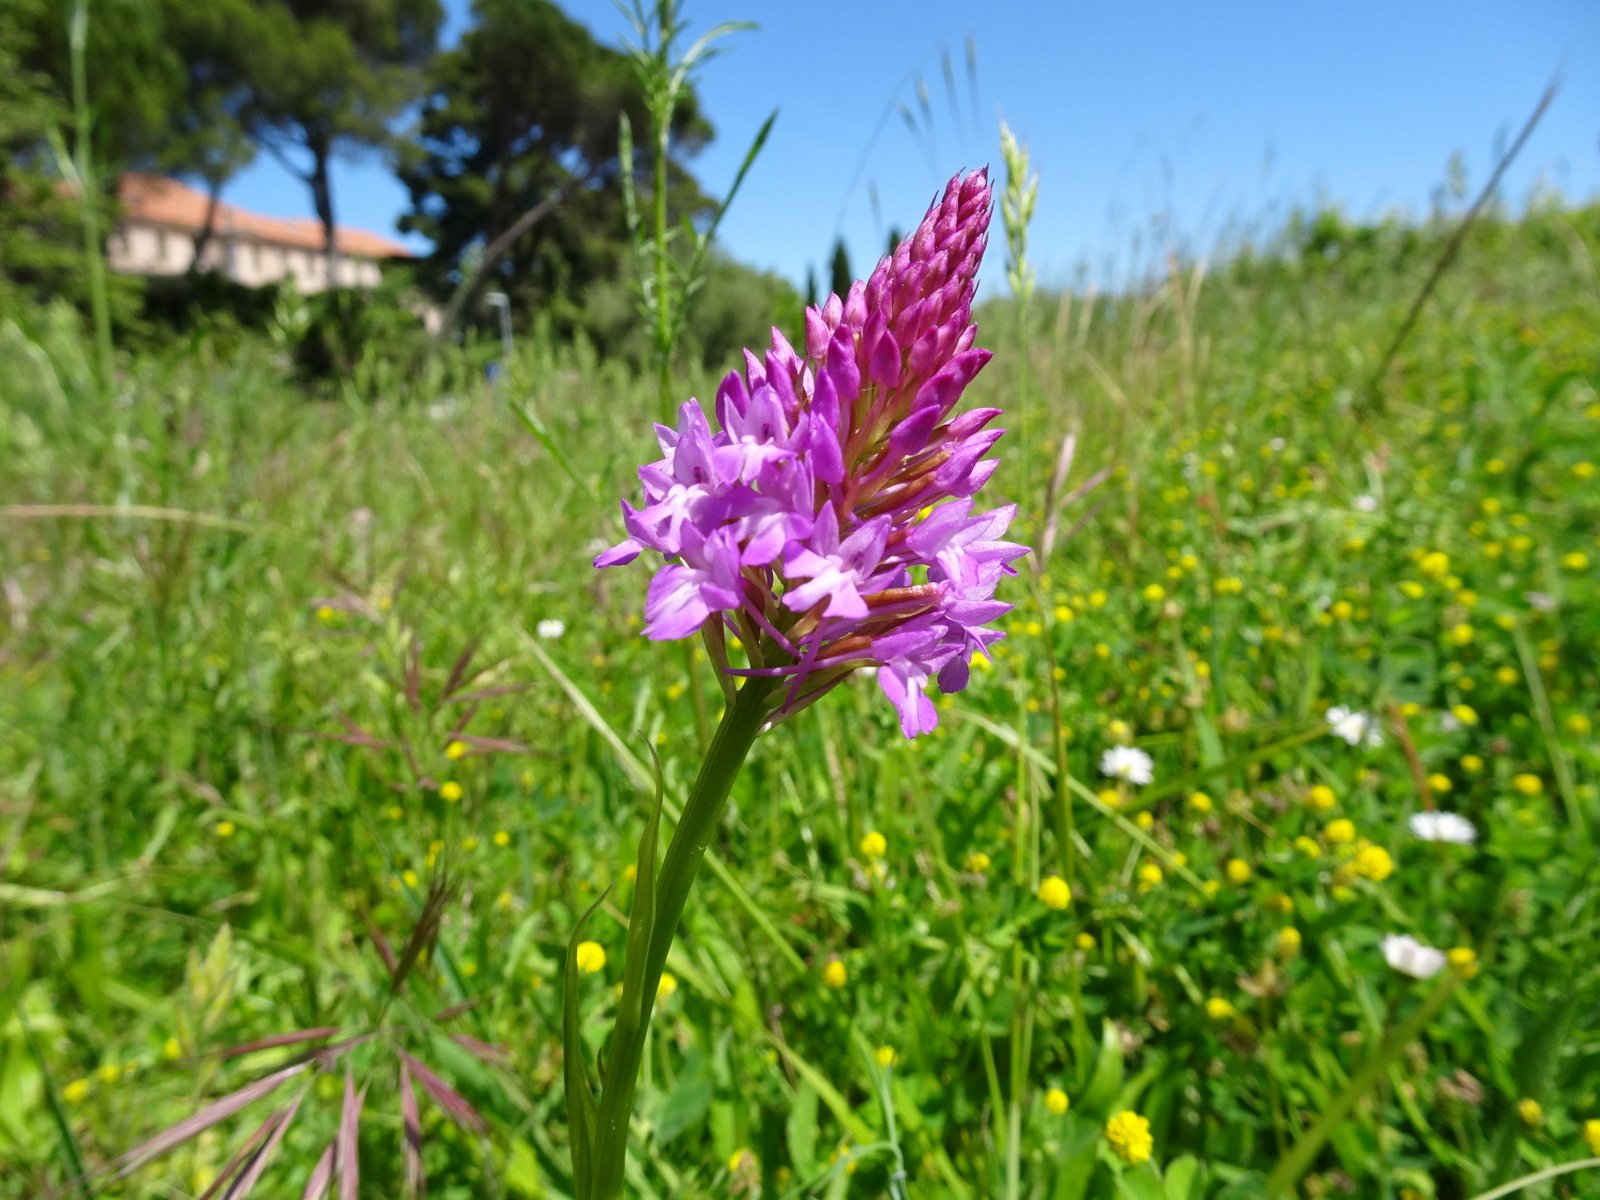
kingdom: Plantae
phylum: Tracheophyta
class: Liliopsida
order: Asparagales
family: Orchidaceae
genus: Anacamptis
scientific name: Anacamptis pyramidalis
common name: Pyramidal orchid
